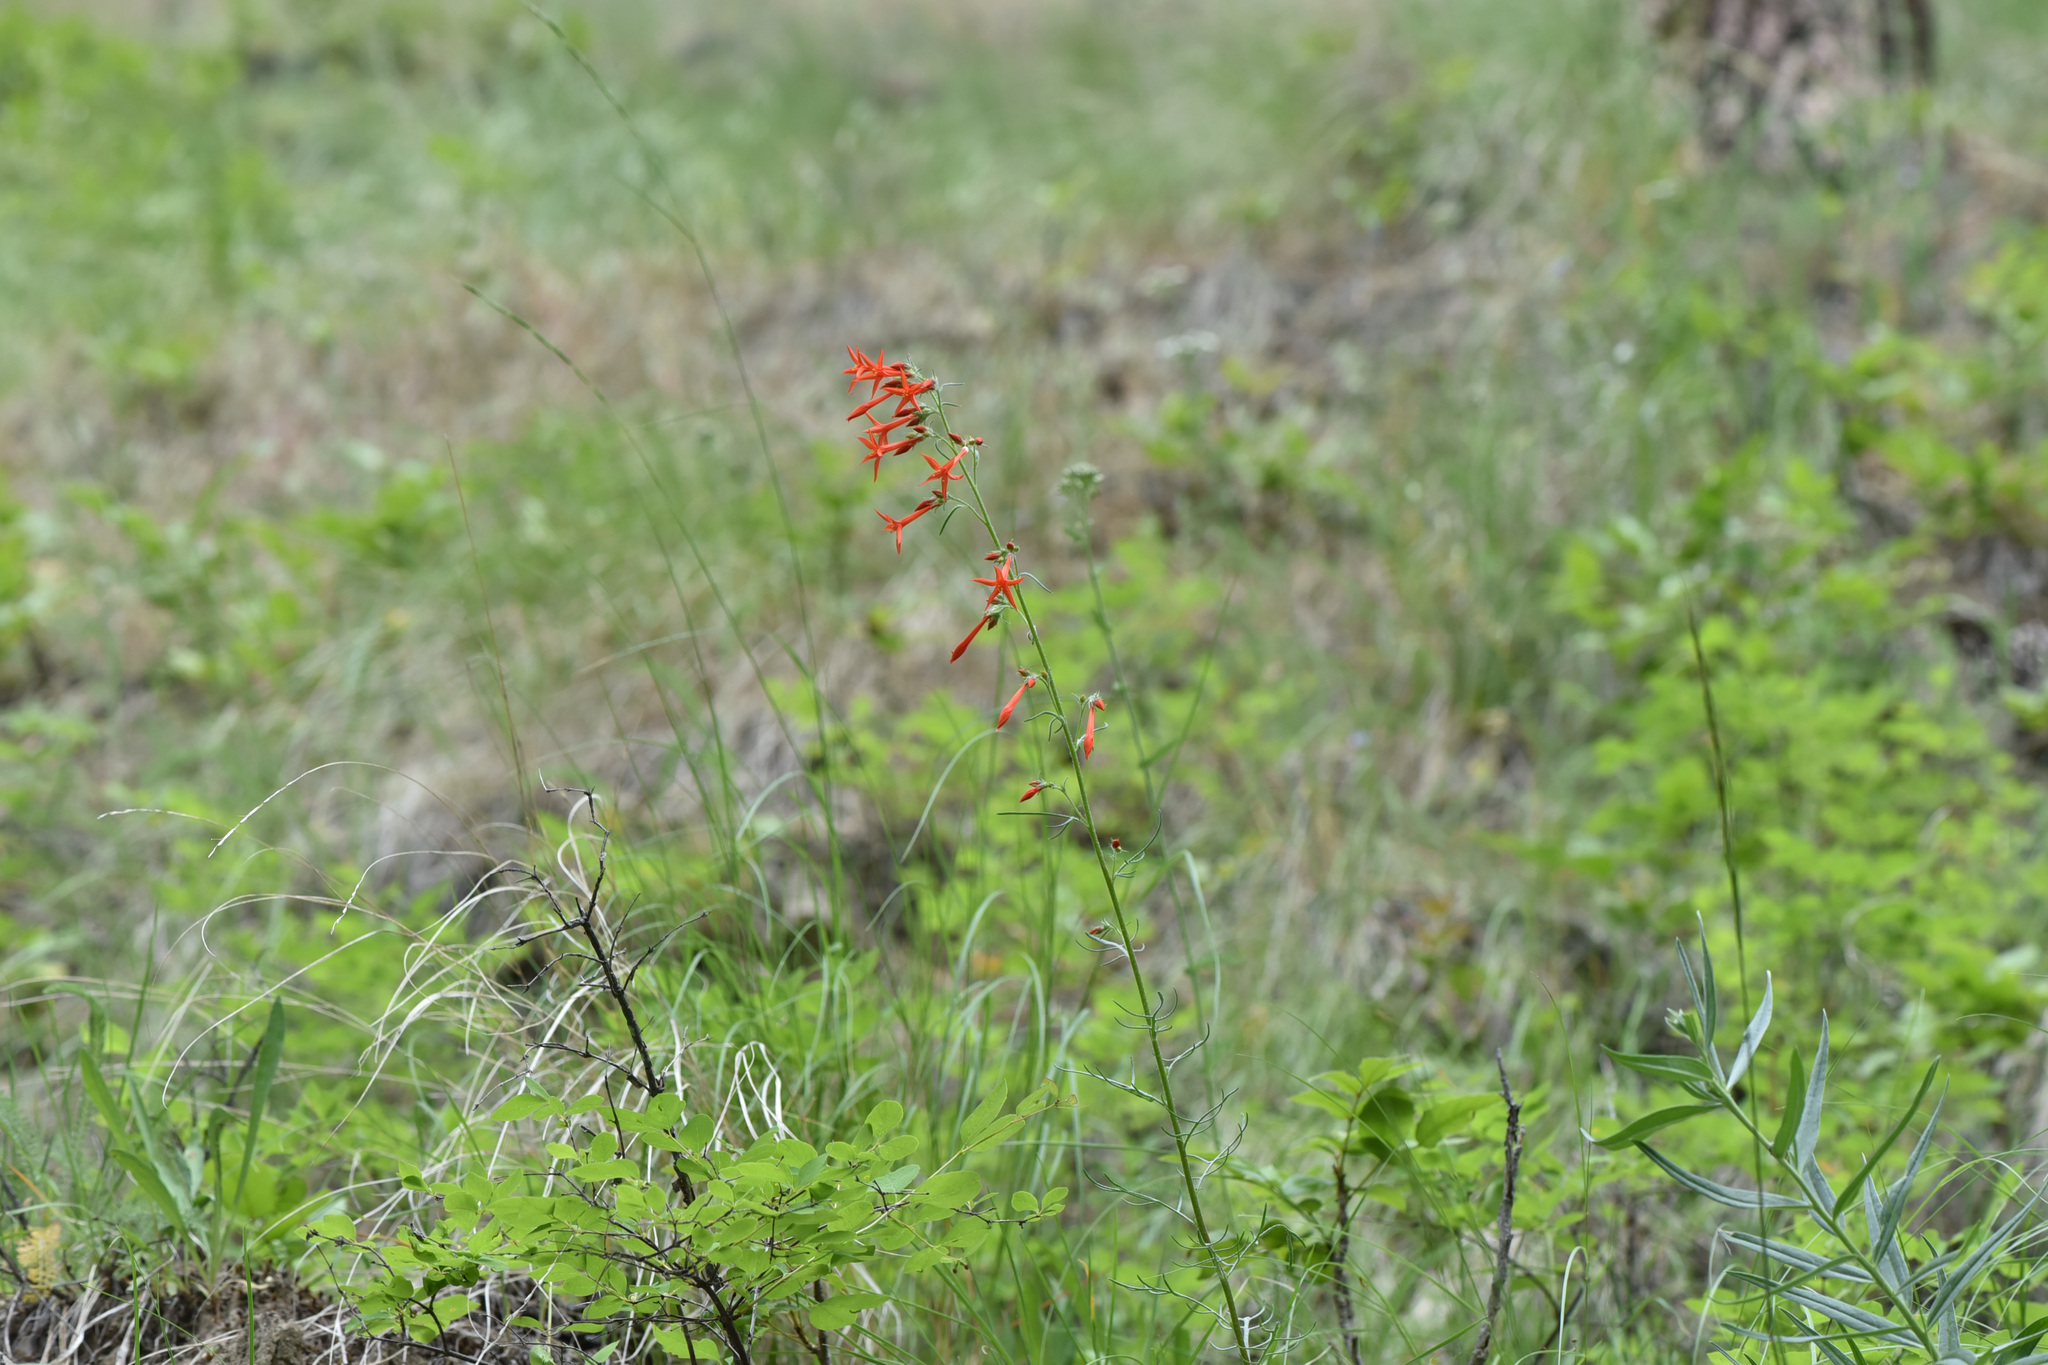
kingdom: Plantae
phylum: Tracheophyta
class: Magnoliopsida
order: Ericales
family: Polemoniaceae
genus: Ipomopsis
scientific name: Ipomopsis aggregata
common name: Scarlet gilia
